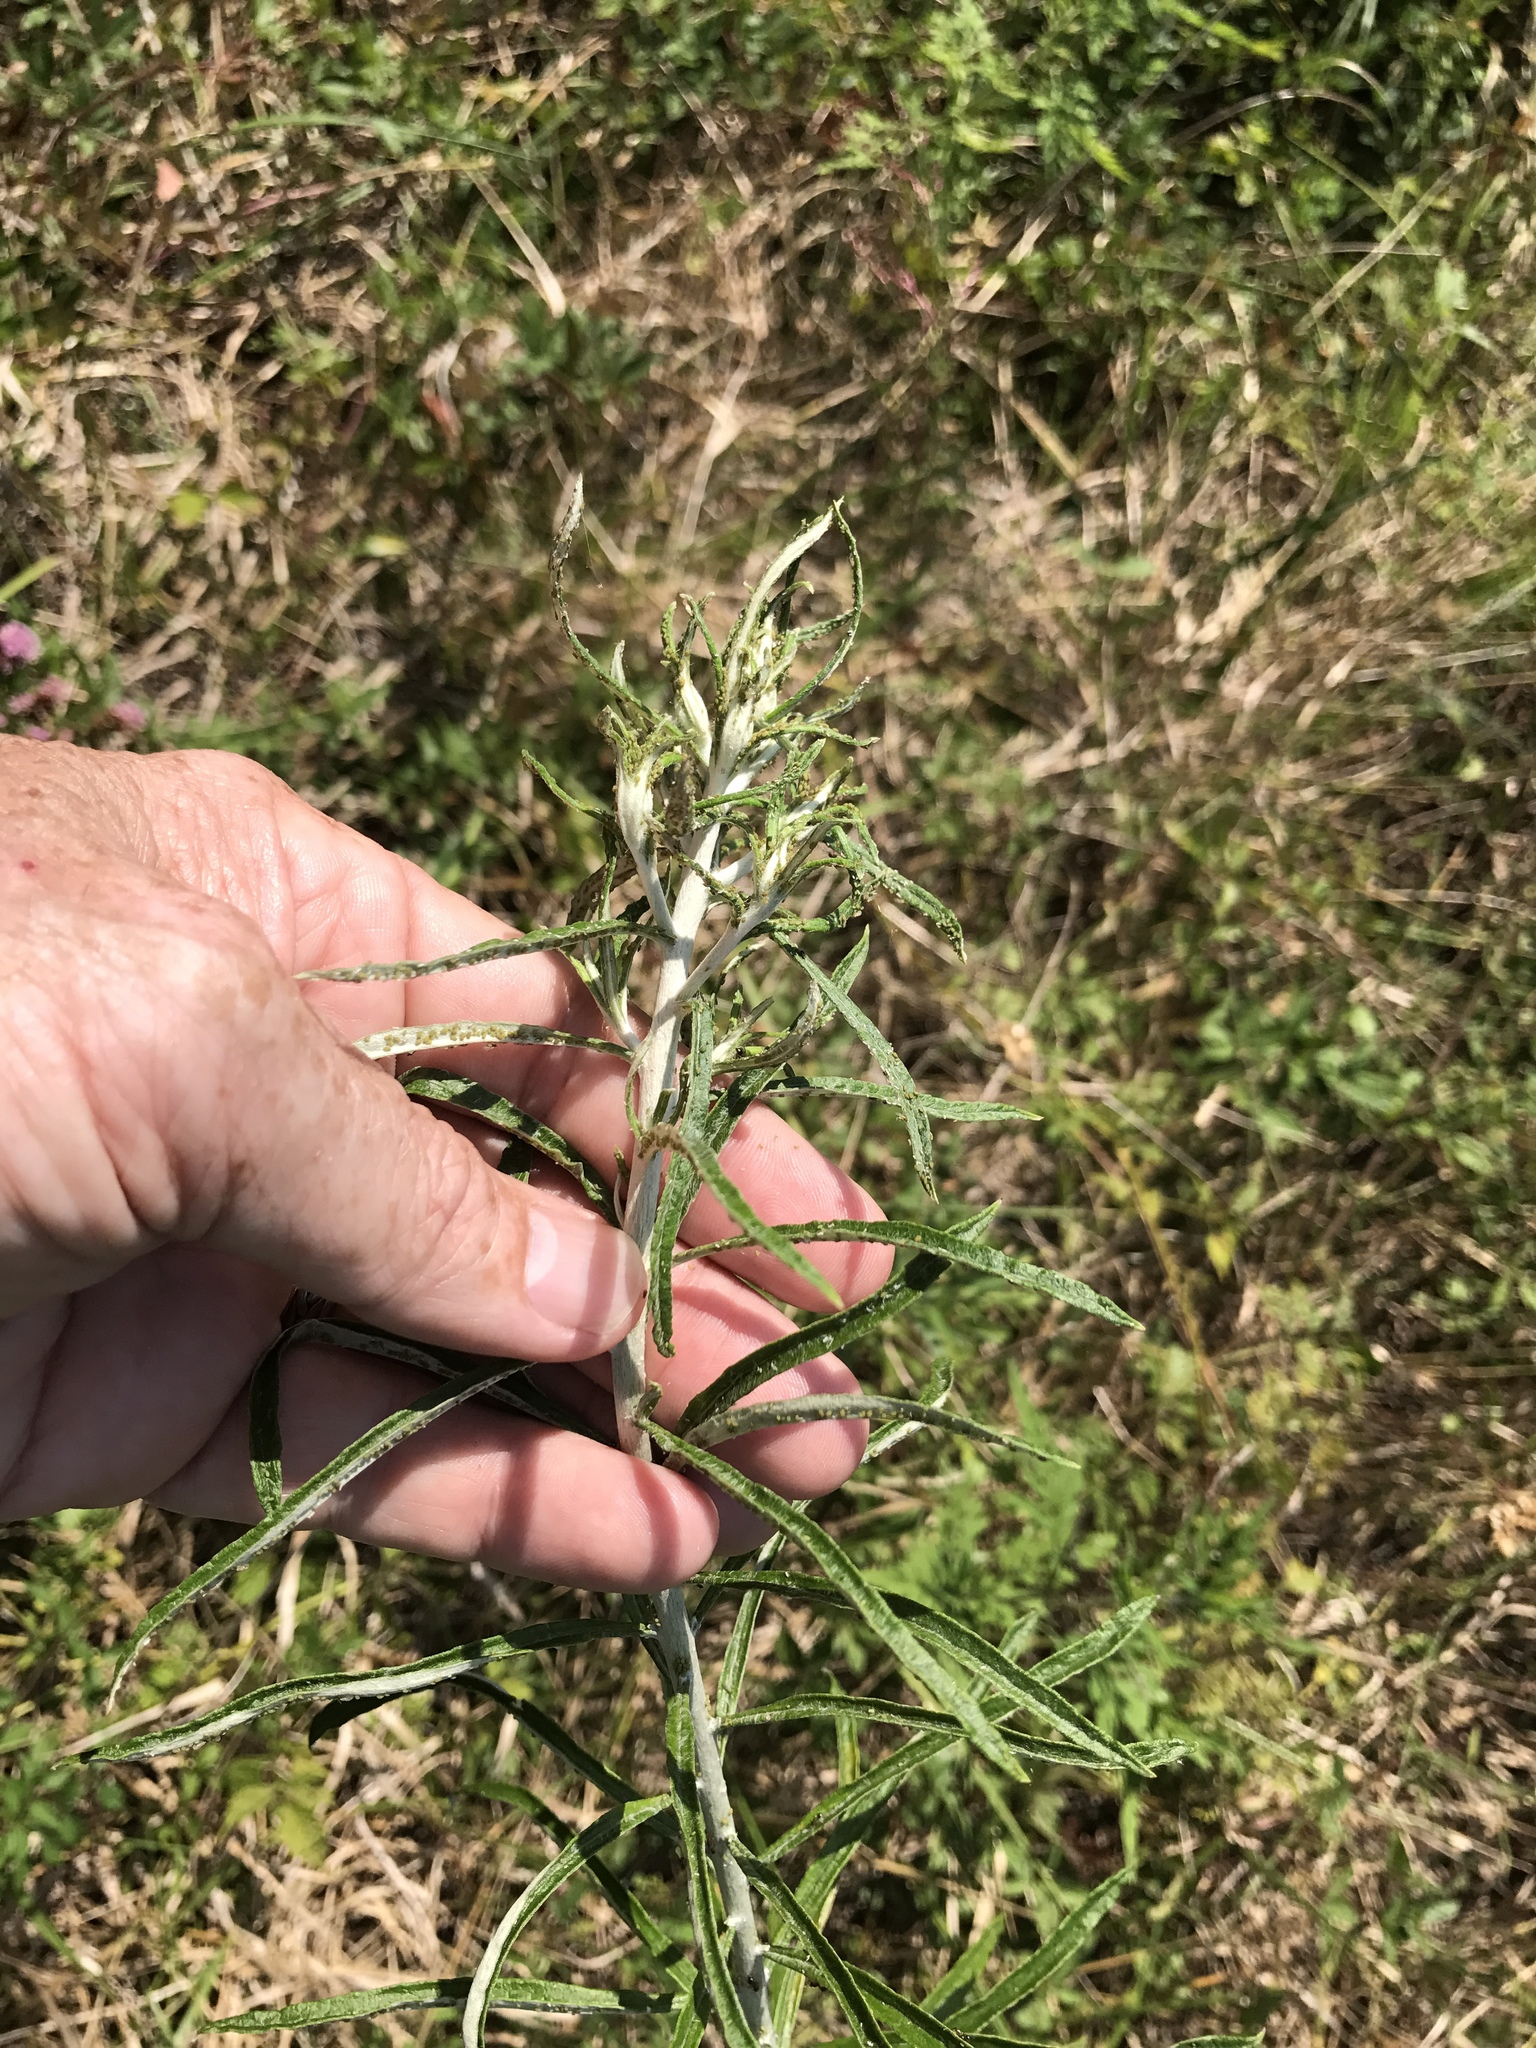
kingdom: Plantae
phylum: Tracheophyta
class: Magnoliopsida
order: Asterales
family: Asteraceae
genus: Pseudognaphalium
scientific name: Pseudognaphalium obtusifolium
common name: Eastern rabbit-tobacco
